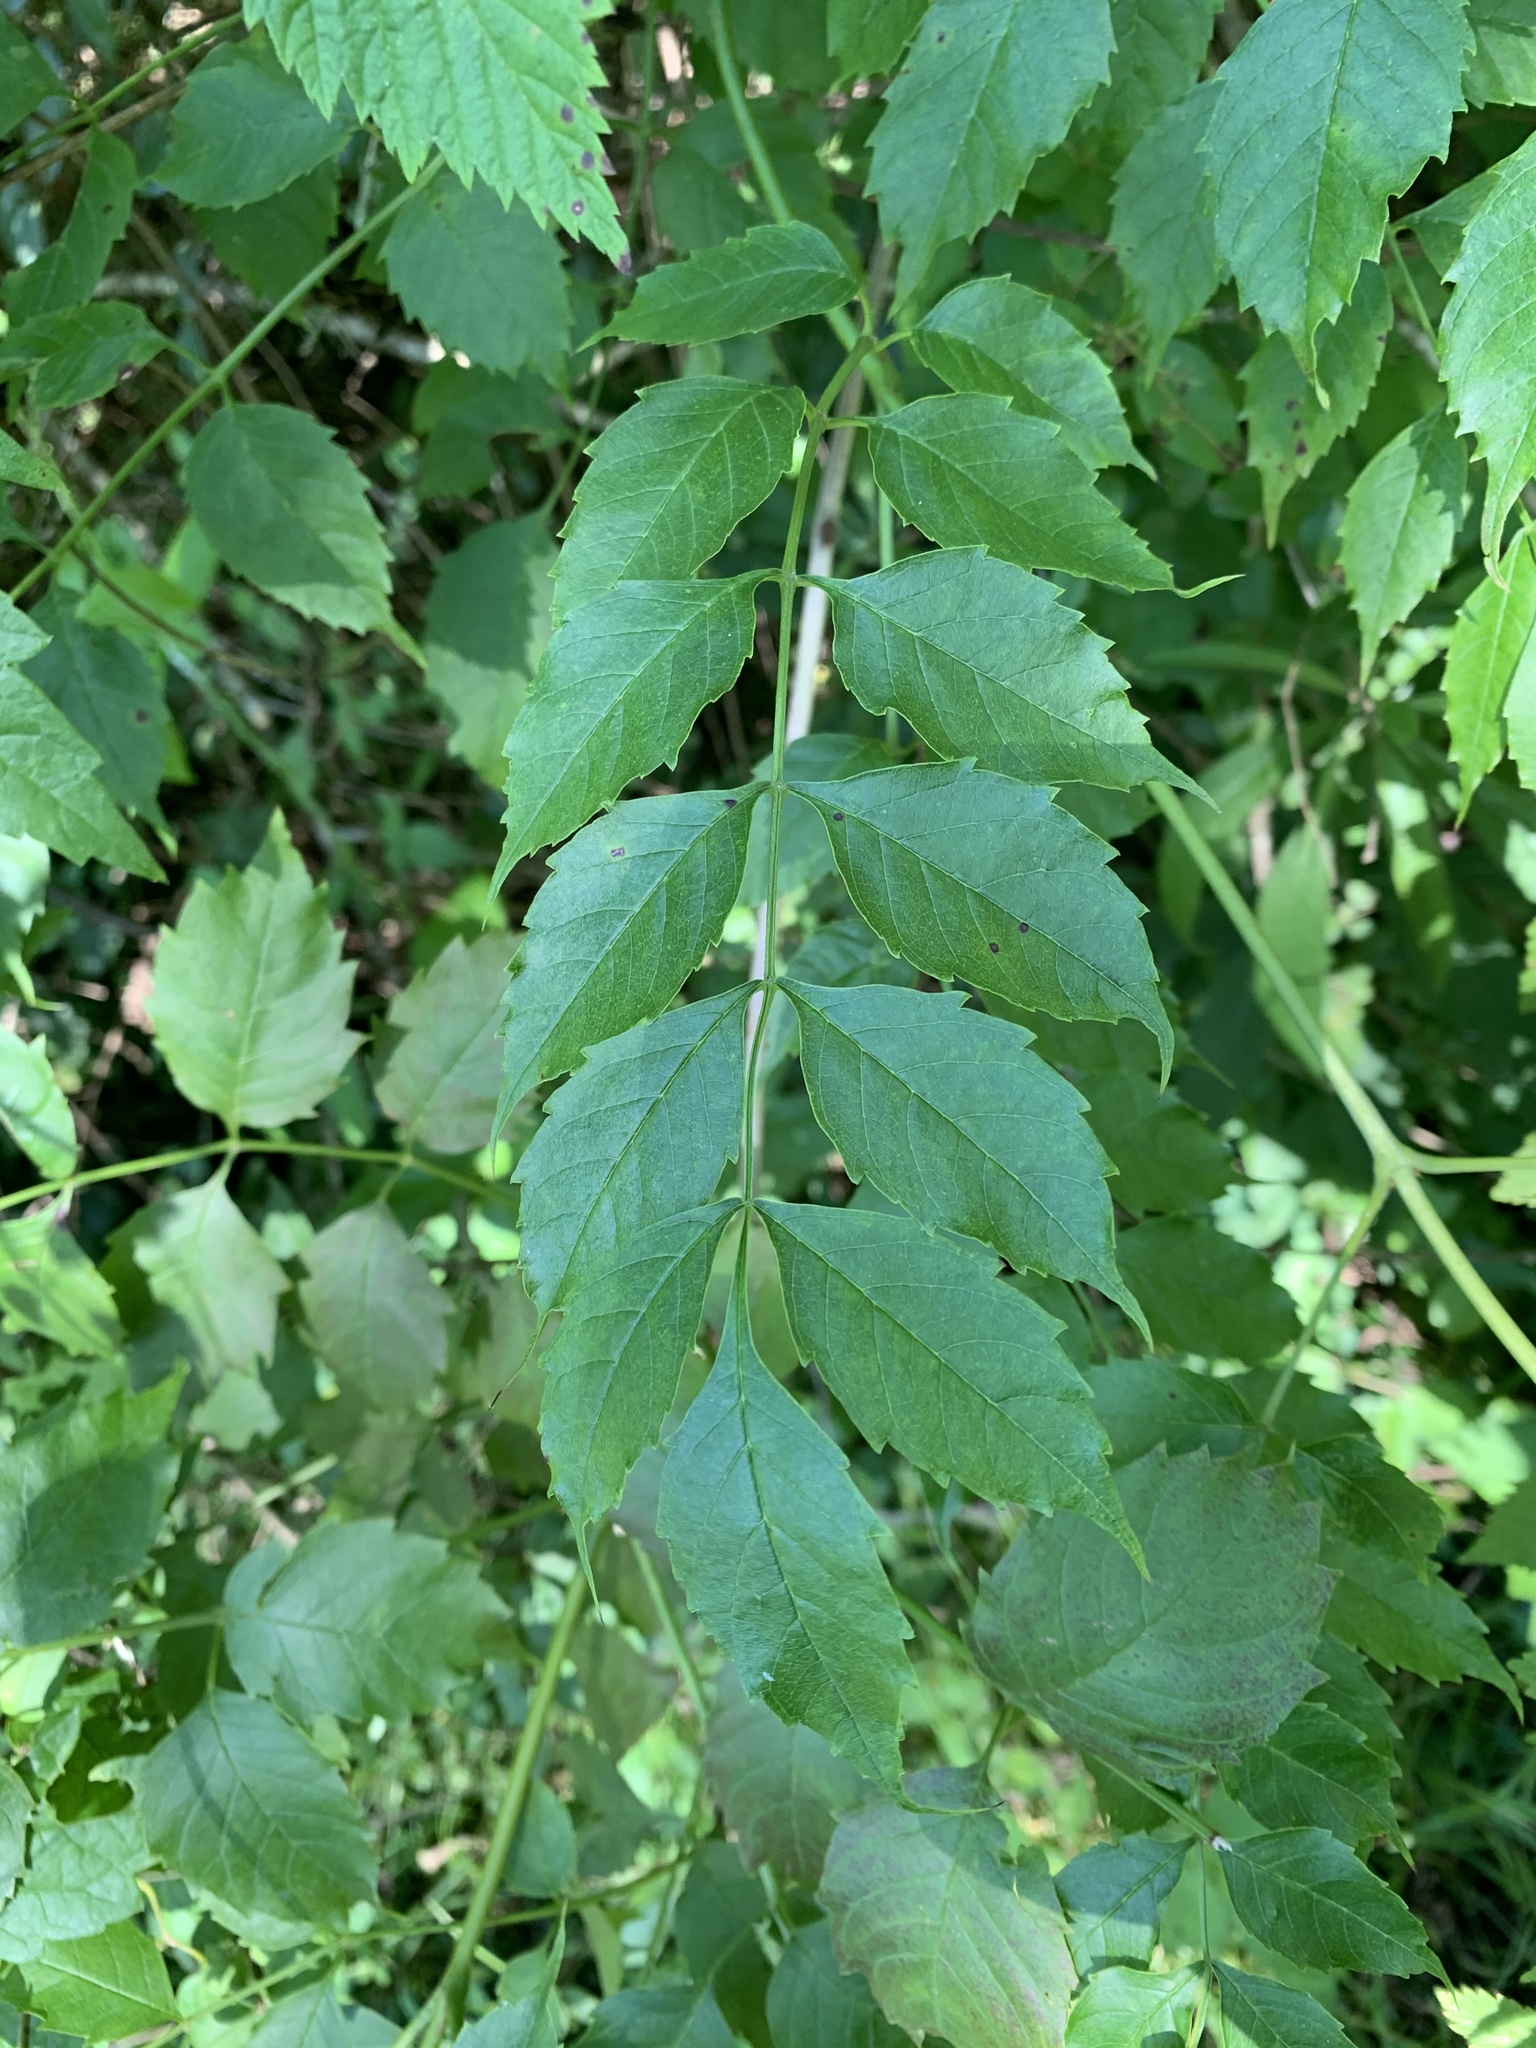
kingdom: Plantae
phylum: Tracheophyta
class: Magnoliopsida
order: Lamiales
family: Bignoniaceae
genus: Campsis
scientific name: Campsis radicans
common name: Trumpet-creeper
